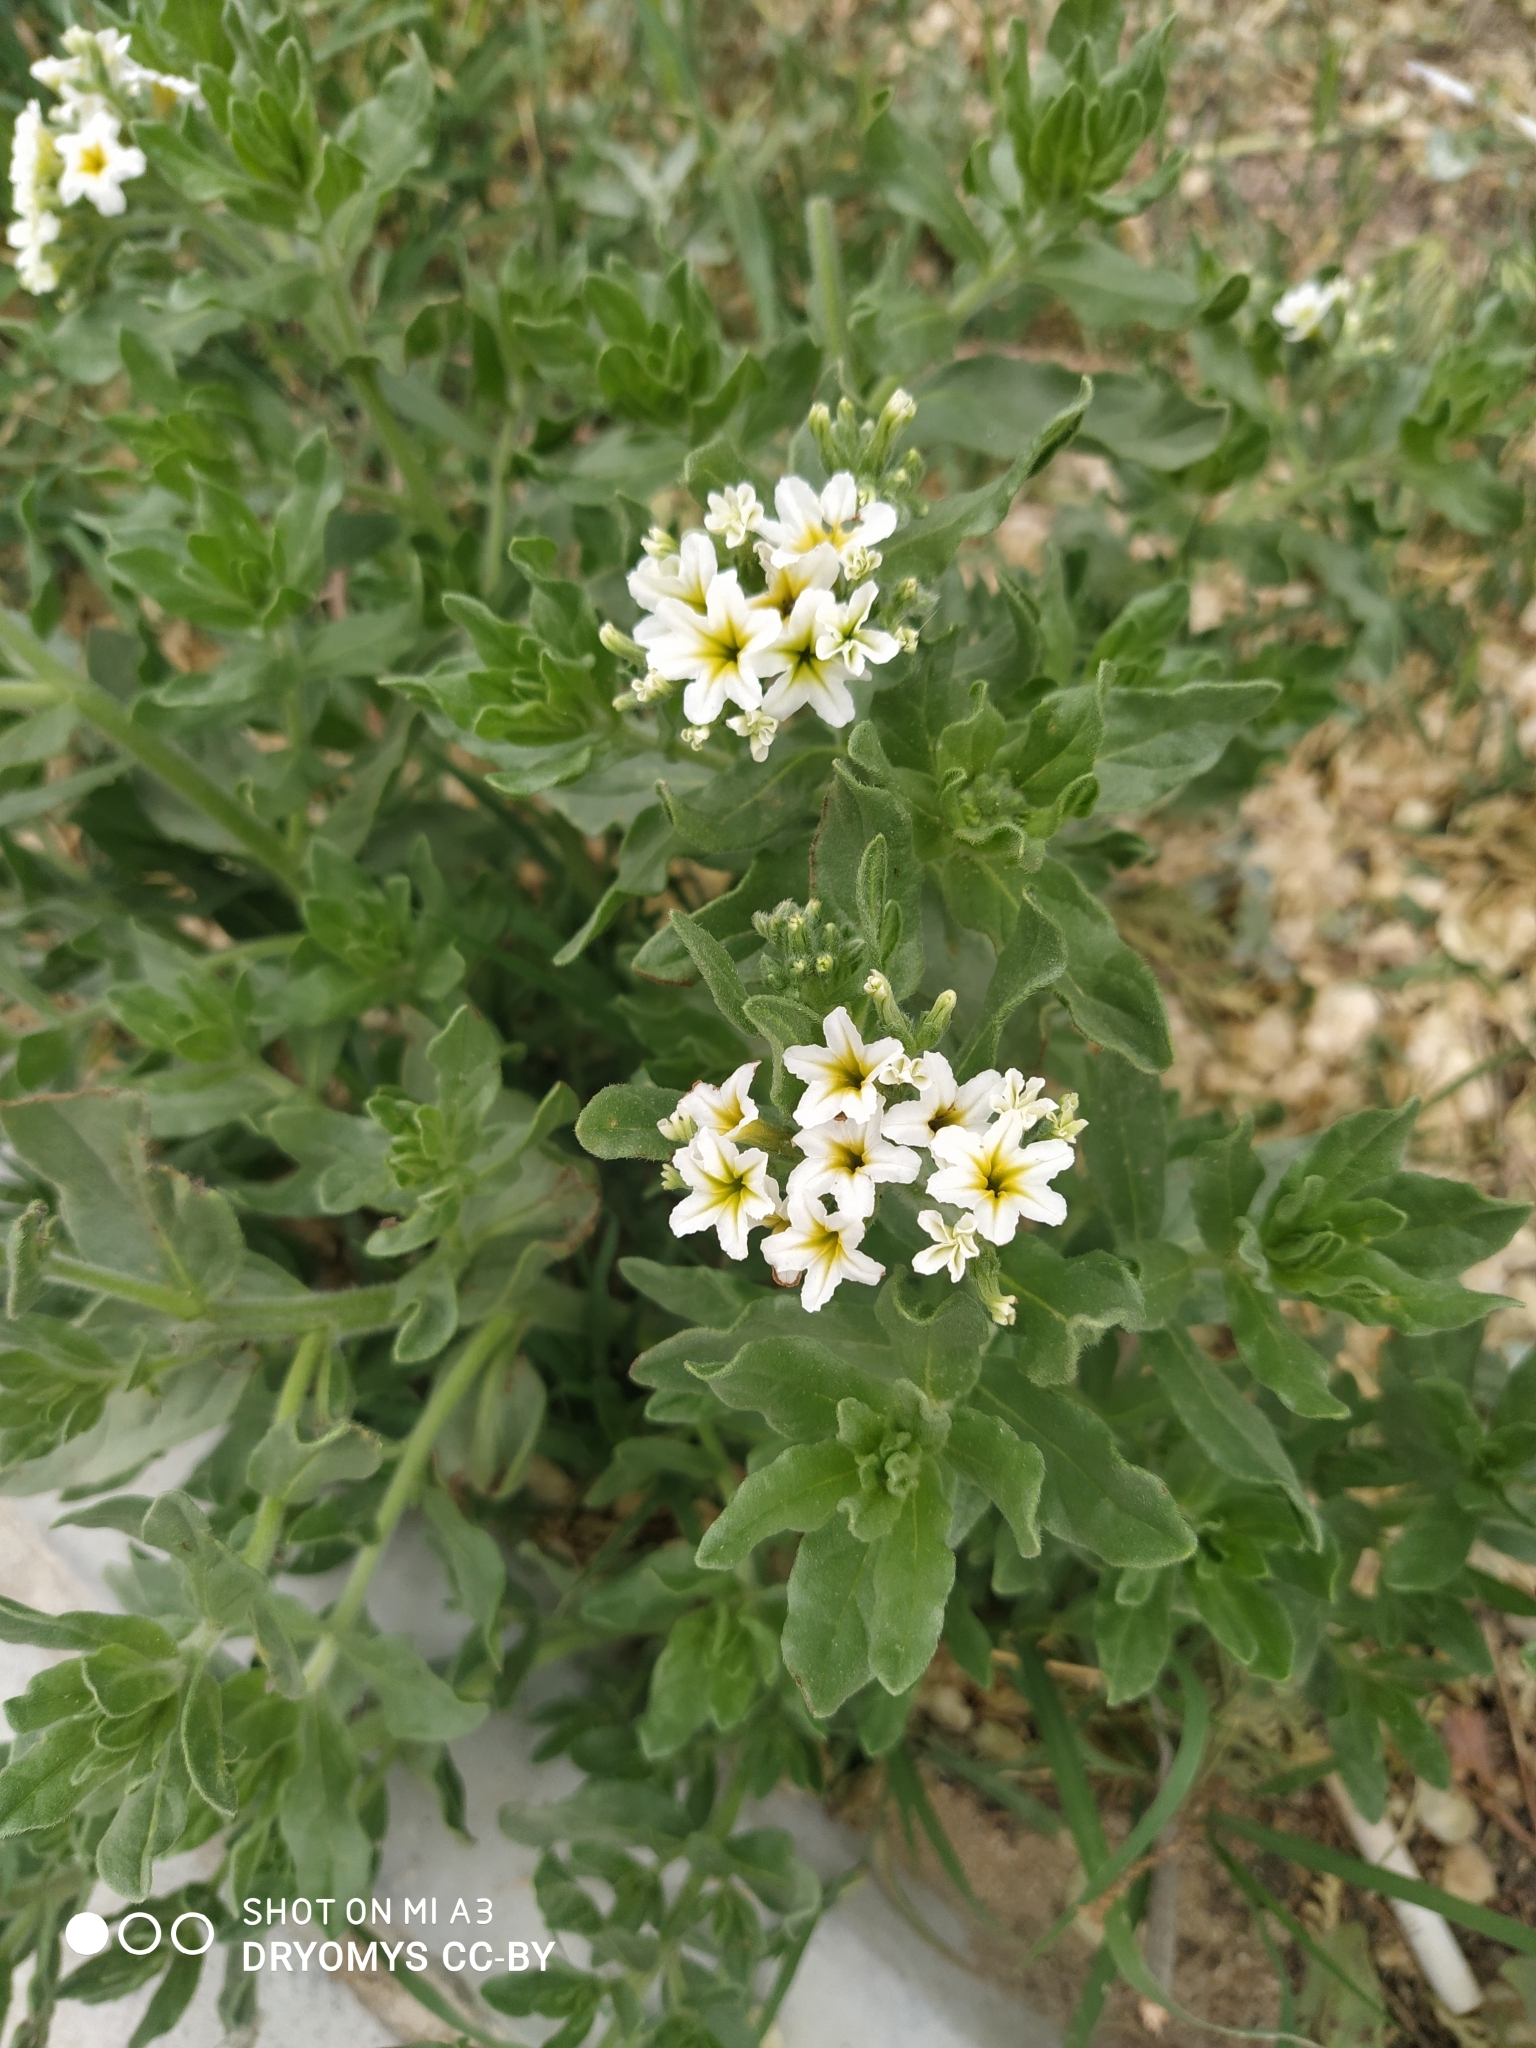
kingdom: Plantae
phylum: Tracheophyta
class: Magnoliopsida
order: Boraginales
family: Heliotropiaceae
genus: Tournefortia
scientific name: Tournefortia sibirica
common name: Siberian sea rosemary
